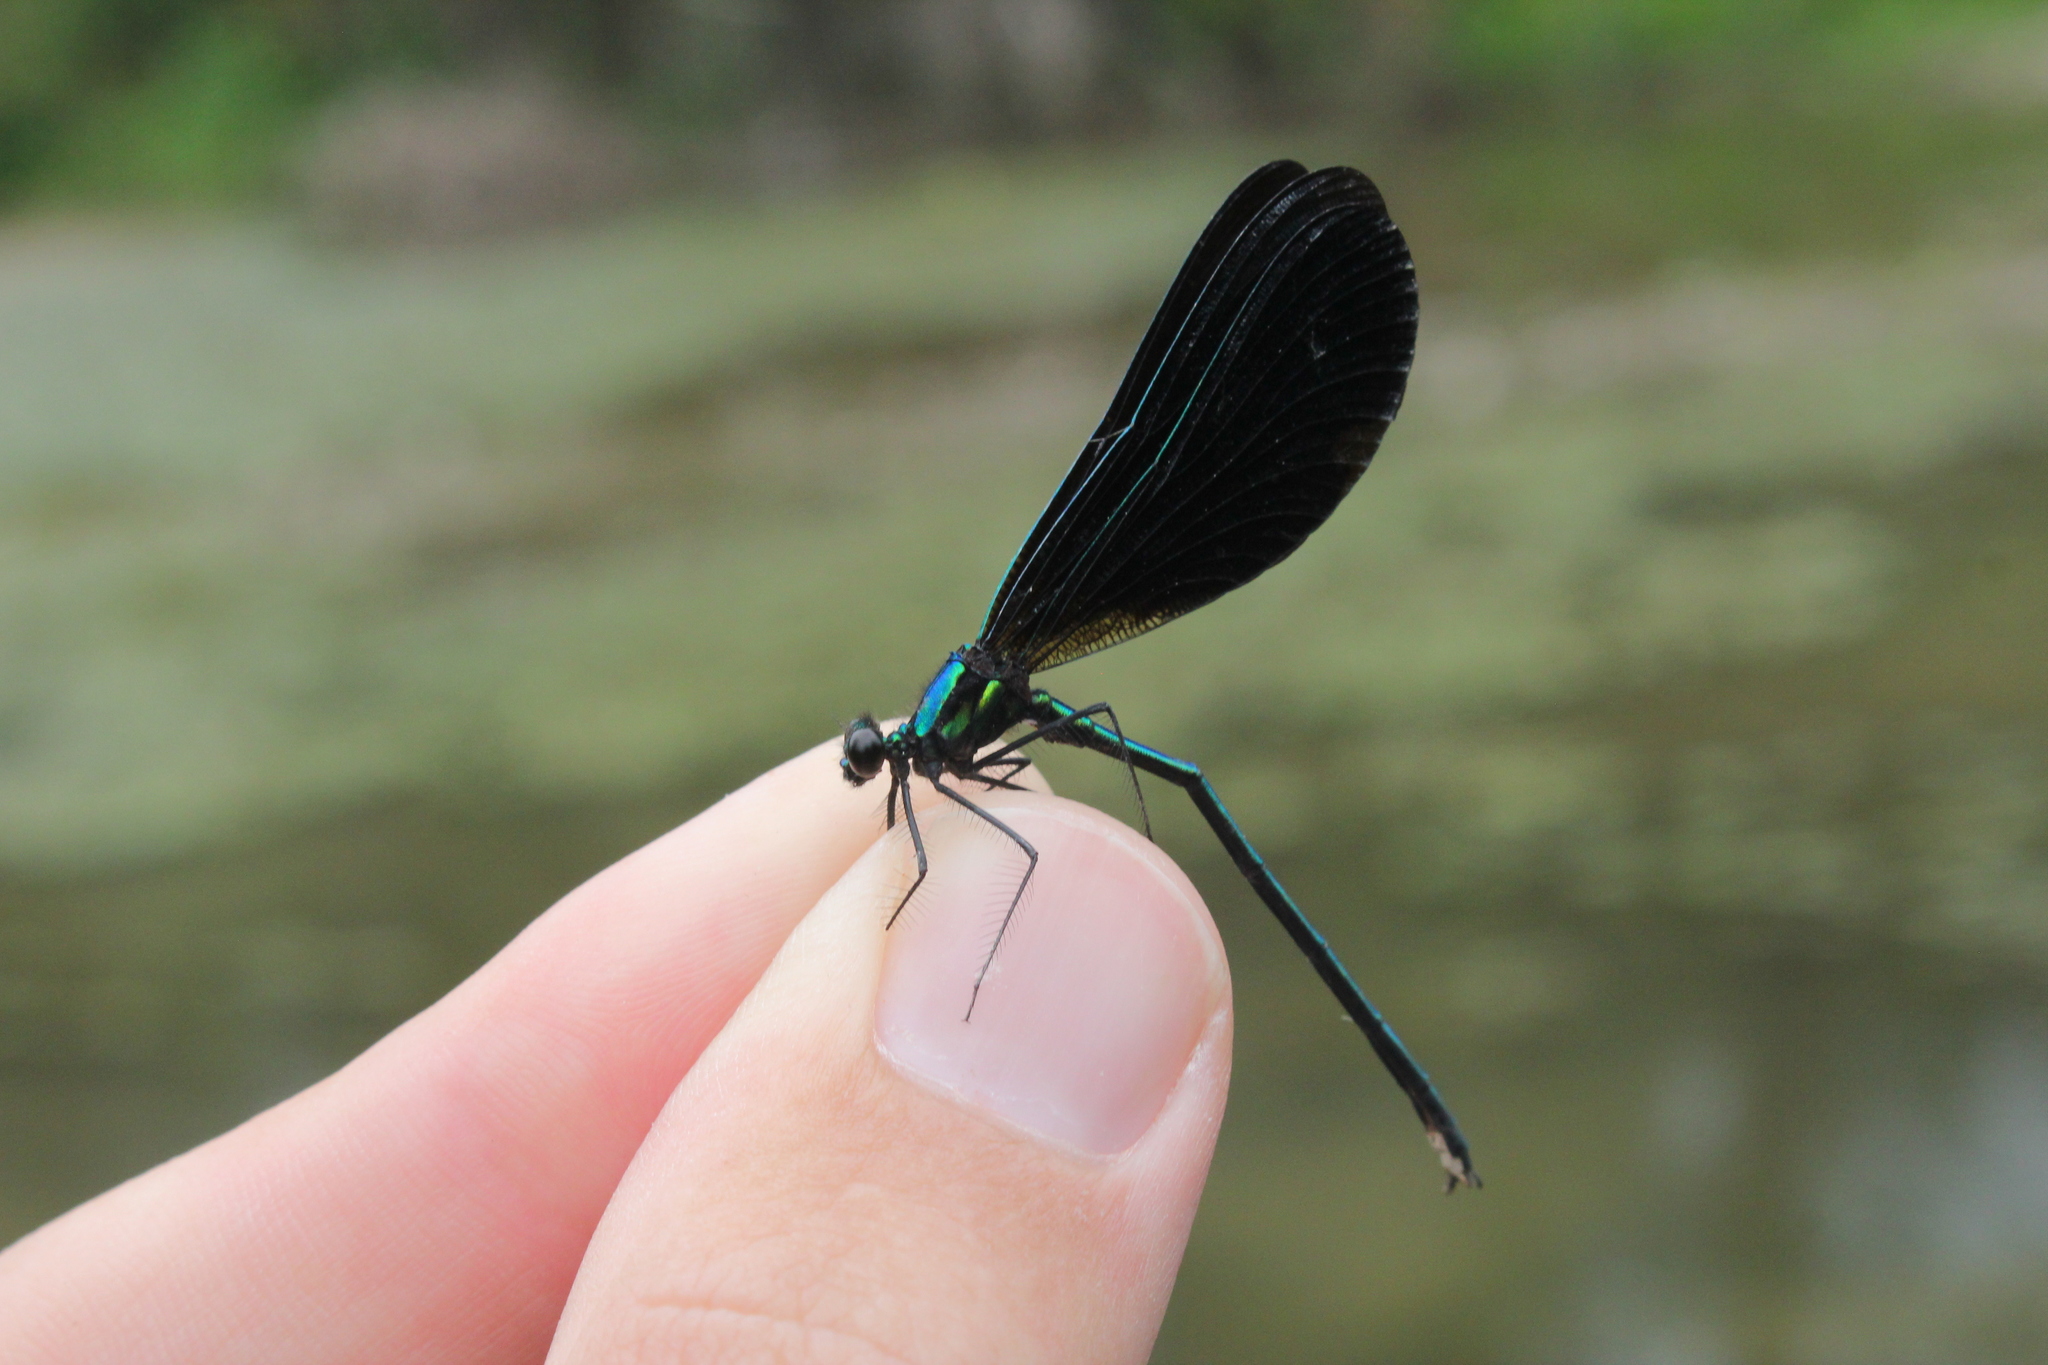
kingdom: Animalia
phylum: Arthropoda
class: Insecta
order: Odonata
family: Calopterygidae
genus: Calopteryx
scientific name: Calopteryx maculata
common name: Ebony jewelwing
